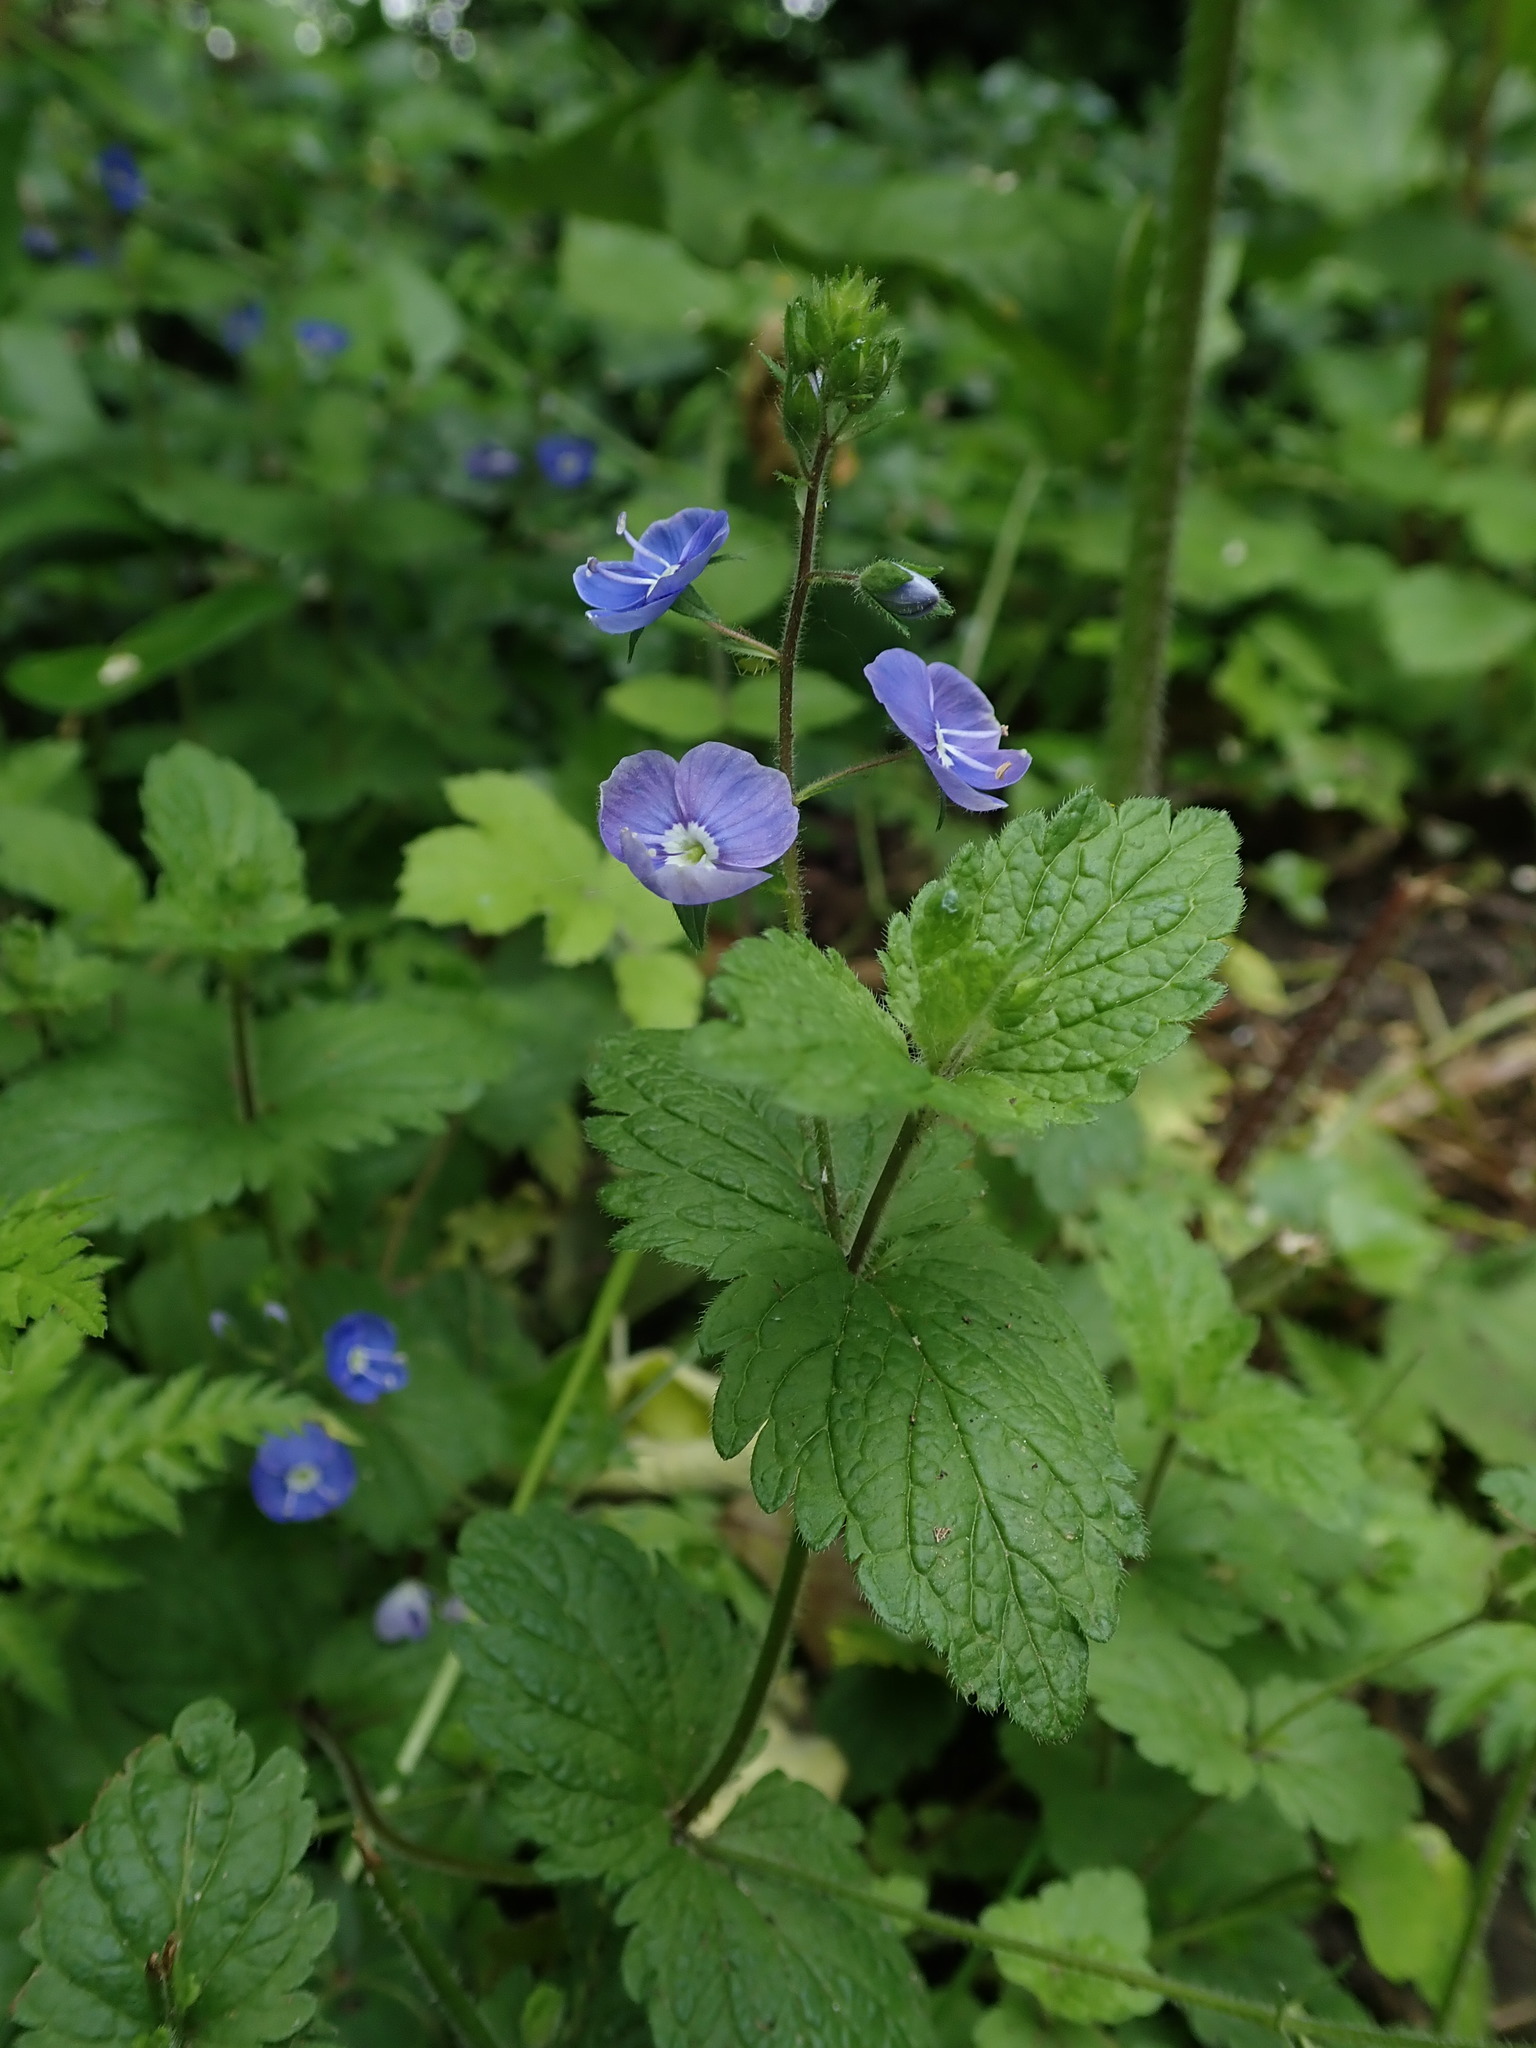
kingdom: Plantae
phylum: Tracheophyta
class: Magnoliopsida
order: Lamiales
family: Plantaginaceae
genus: Veronica
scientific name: Veronica chamaedrys
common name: Germander speedwell
